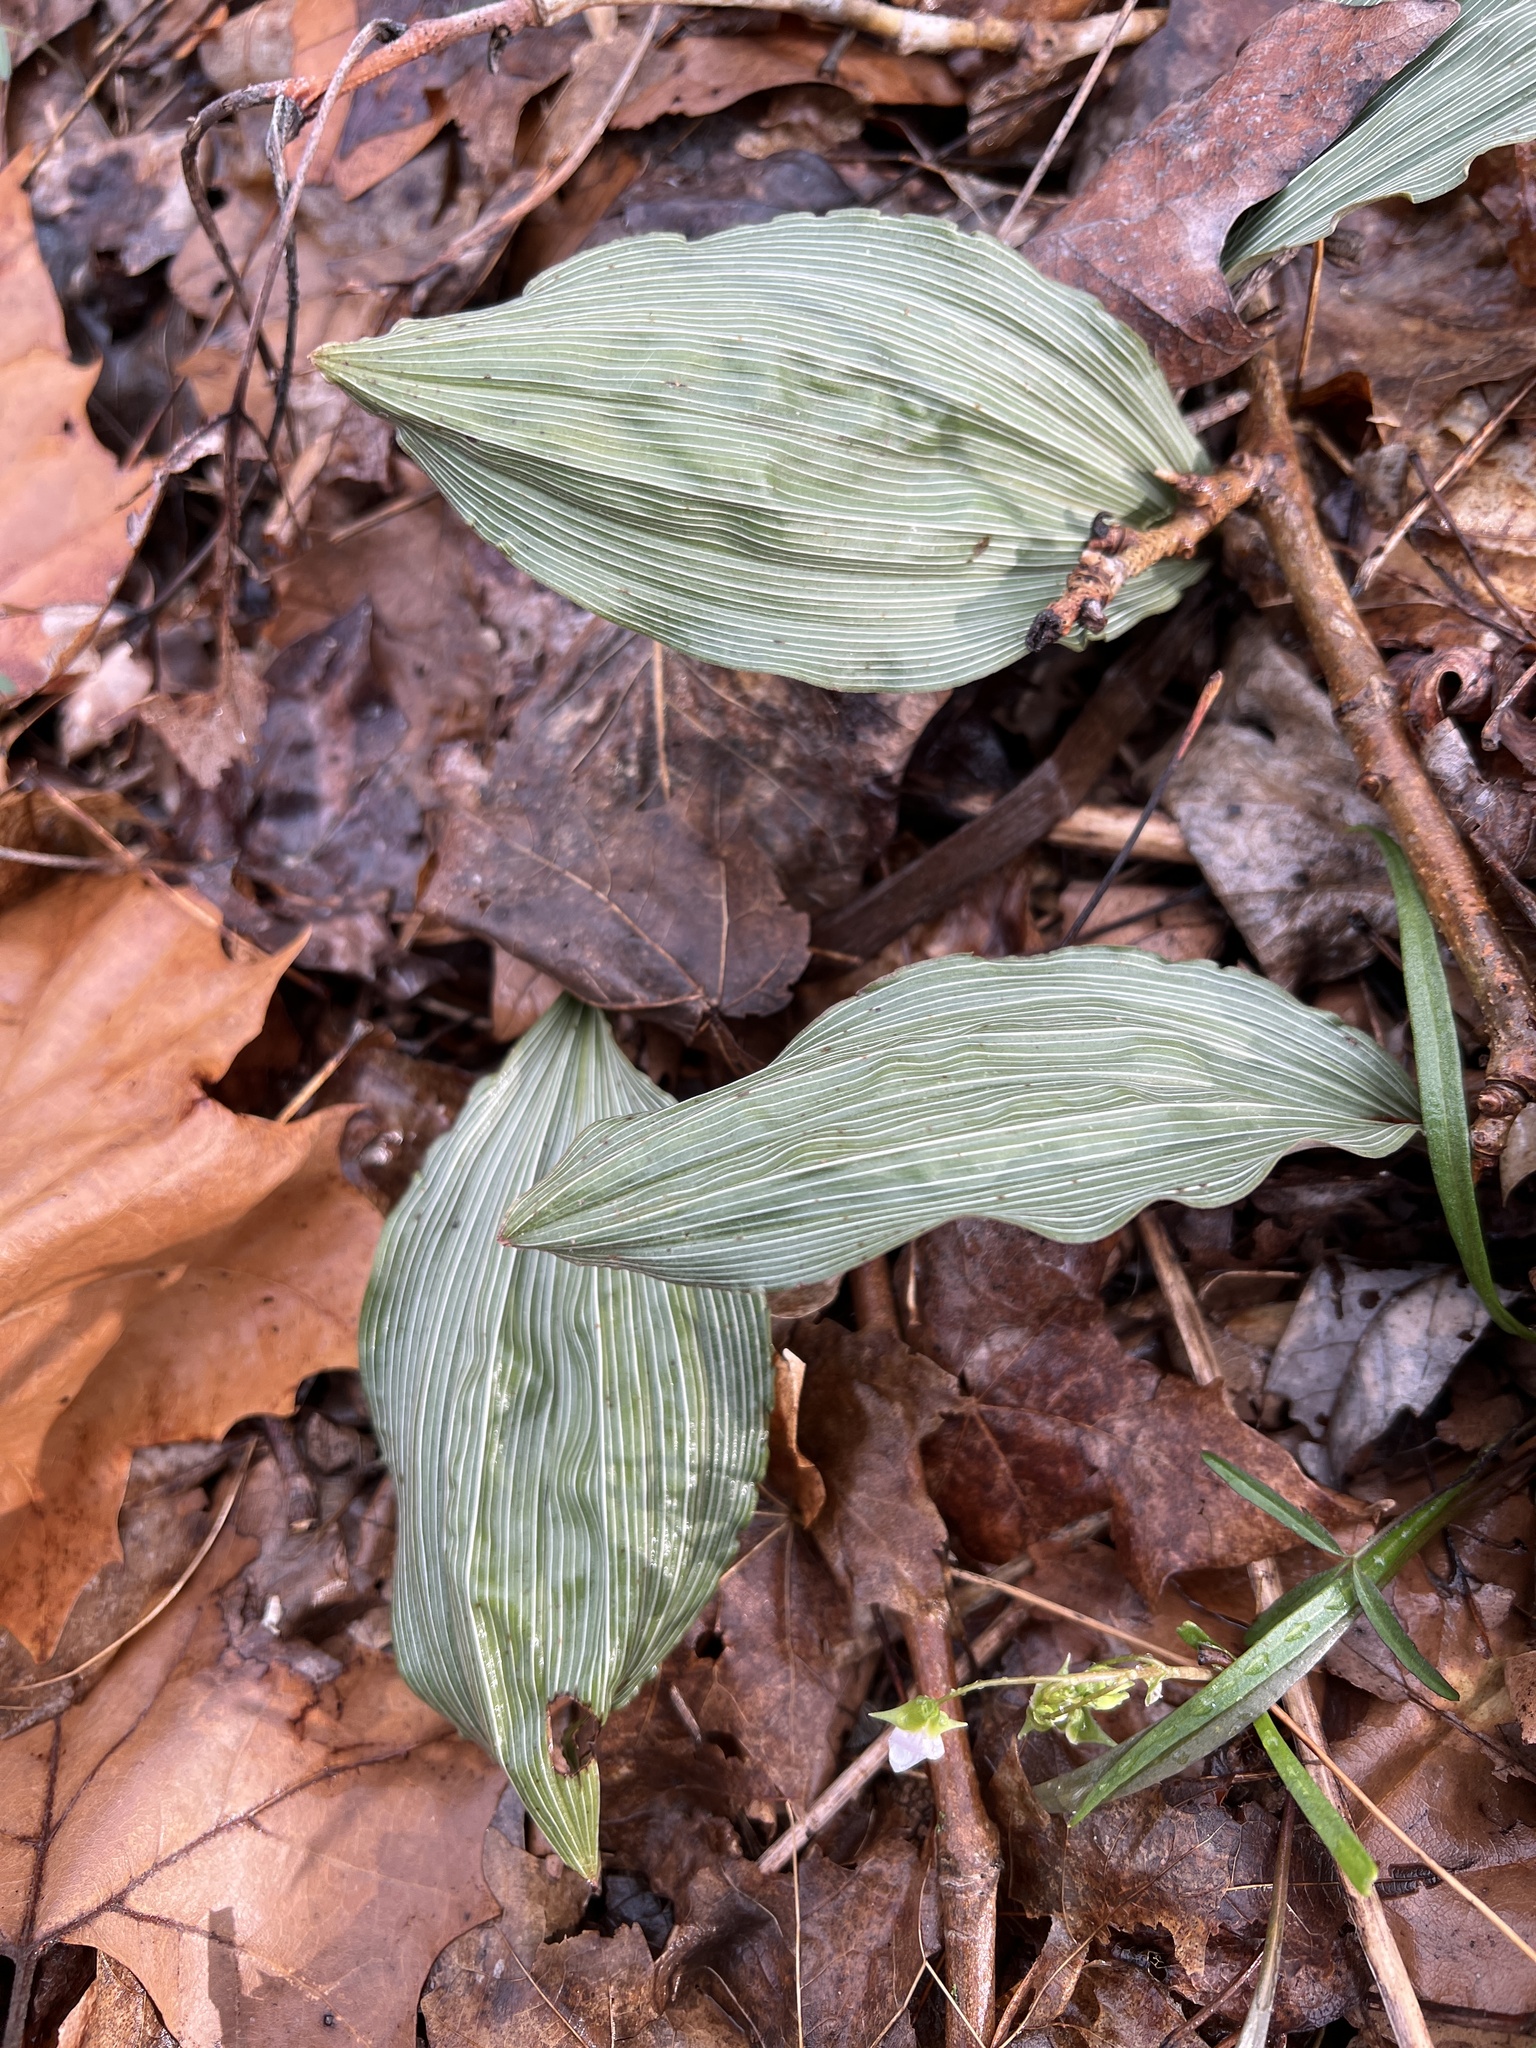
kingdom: Plantae
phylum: Tracheophyta
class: Liliopsida
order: Asparagales
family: Orchidaceae
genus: Aplectrum
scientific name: Aplectrum hyemale
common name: Adam-and-eve
